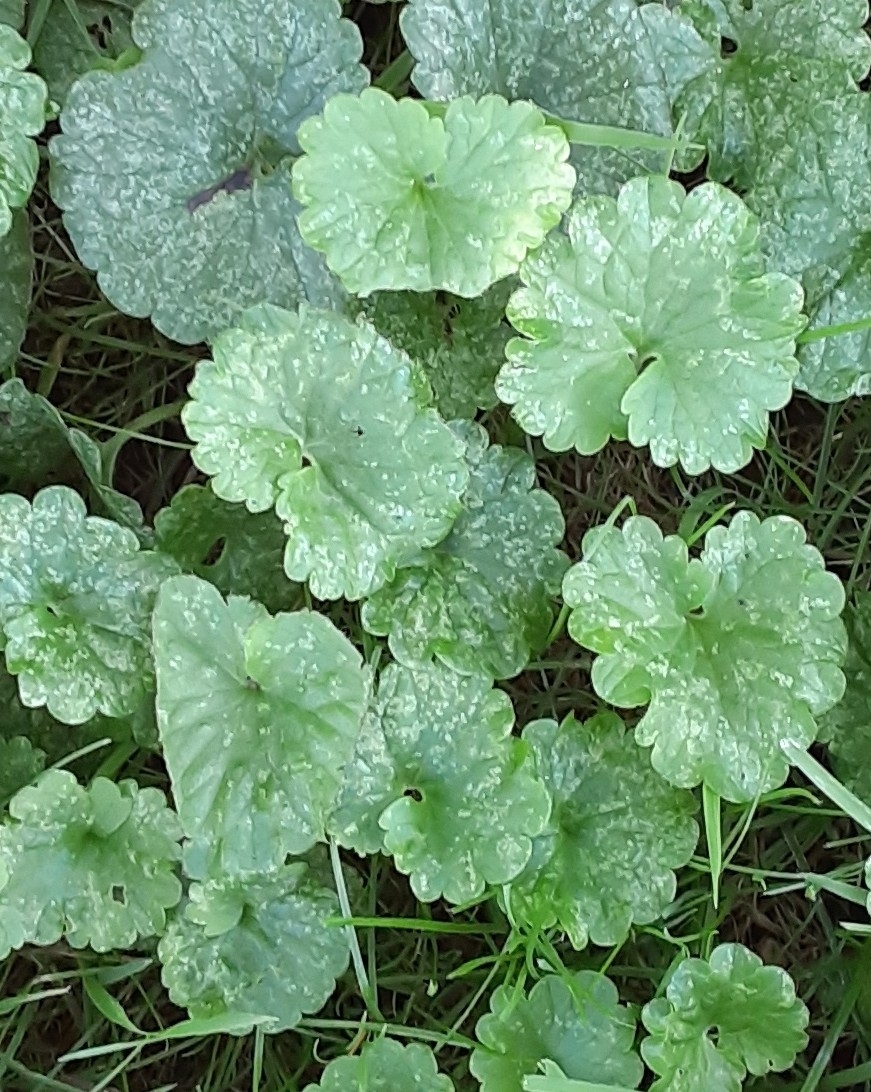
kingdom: Plantae
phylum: Tracheophyta
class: Magnoliopsida
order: Lamiales
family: Lamiaceae
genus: Glechoma
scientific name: Glechoma hederacea
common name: Ground ivy
